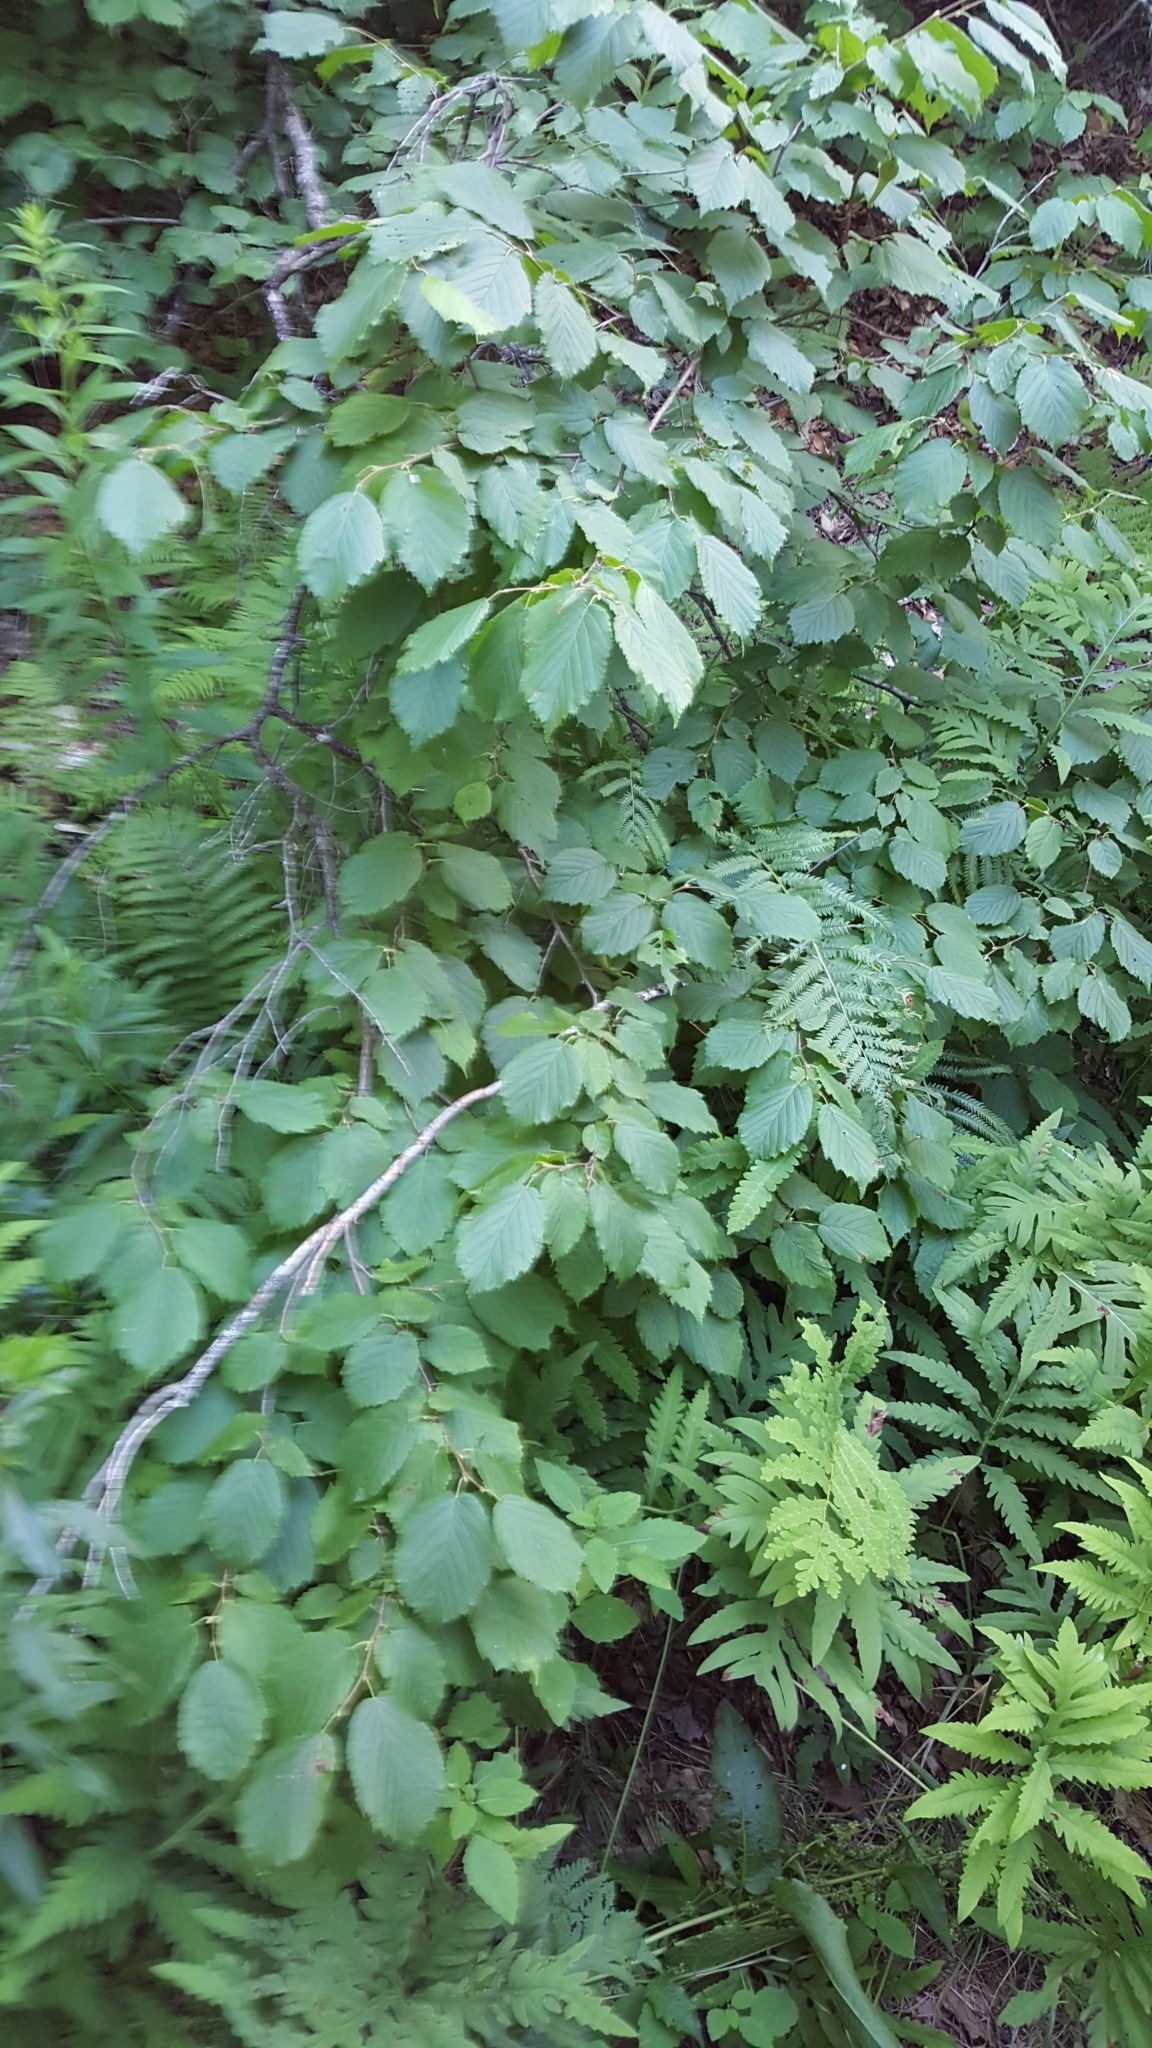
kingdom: Plantae
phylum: Tracheophyta
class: Magnoliopsida
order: Fagales
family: Betulaceae
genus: Corylus
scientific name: Corylus cornuta
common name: Beaked hazel
